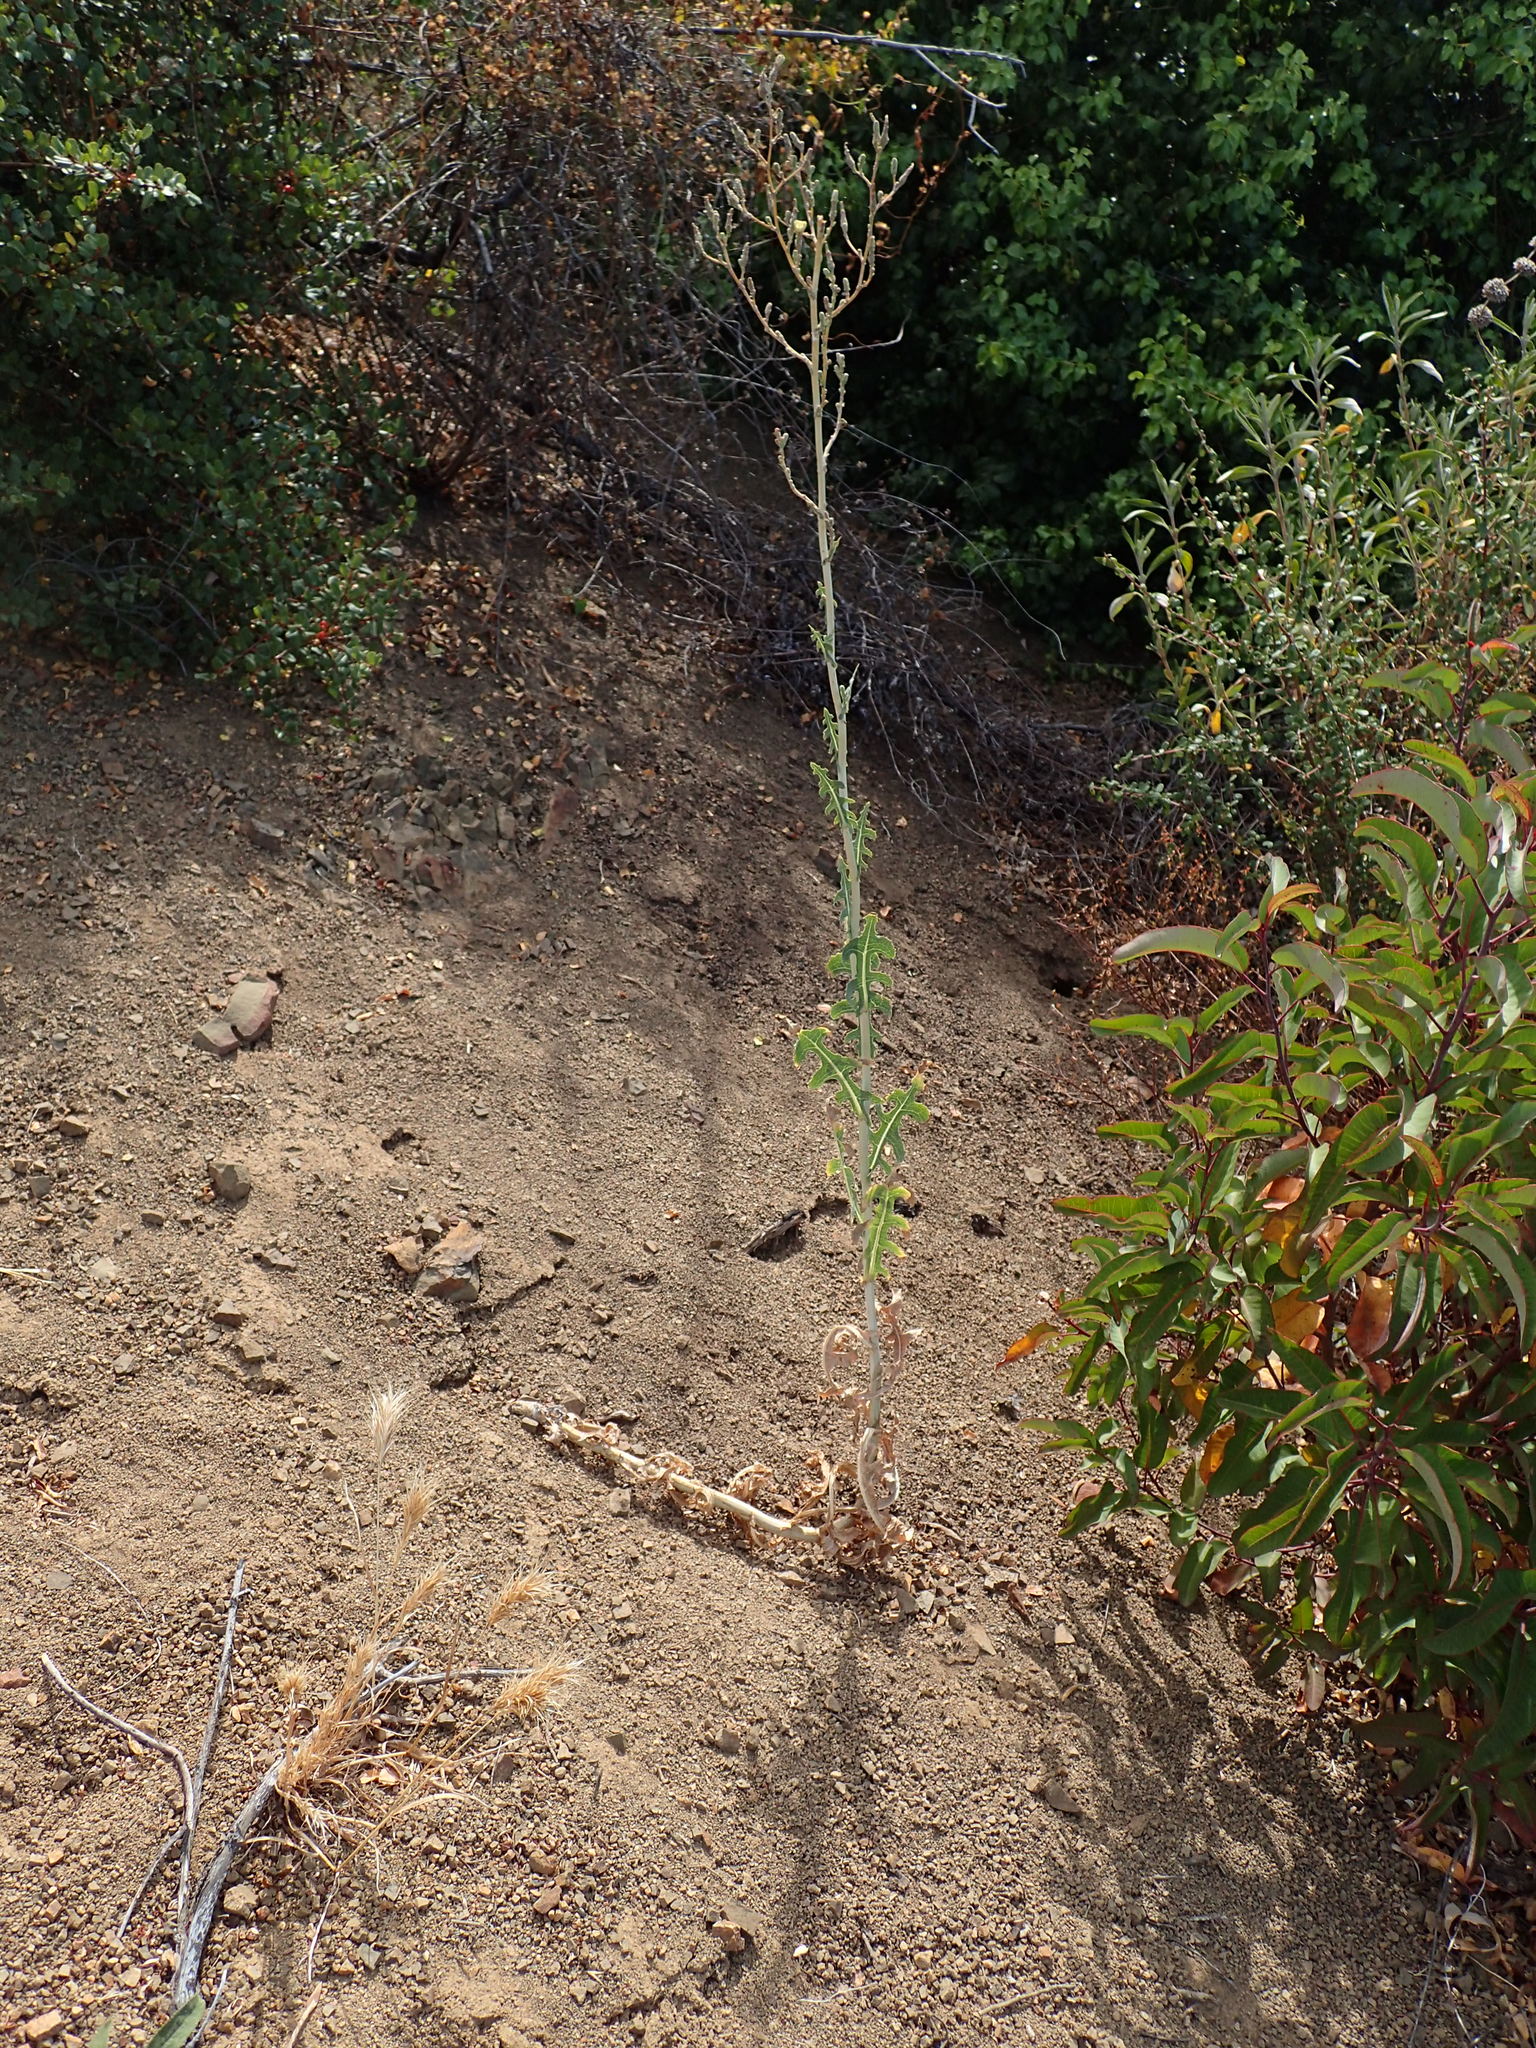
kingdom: Plantae
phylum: Tracheophyta
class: Magnoliopsida
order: Asterales
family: Asteraceae
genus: Lactuca
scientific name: Lactuca serriola
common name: Prickly lettuce
